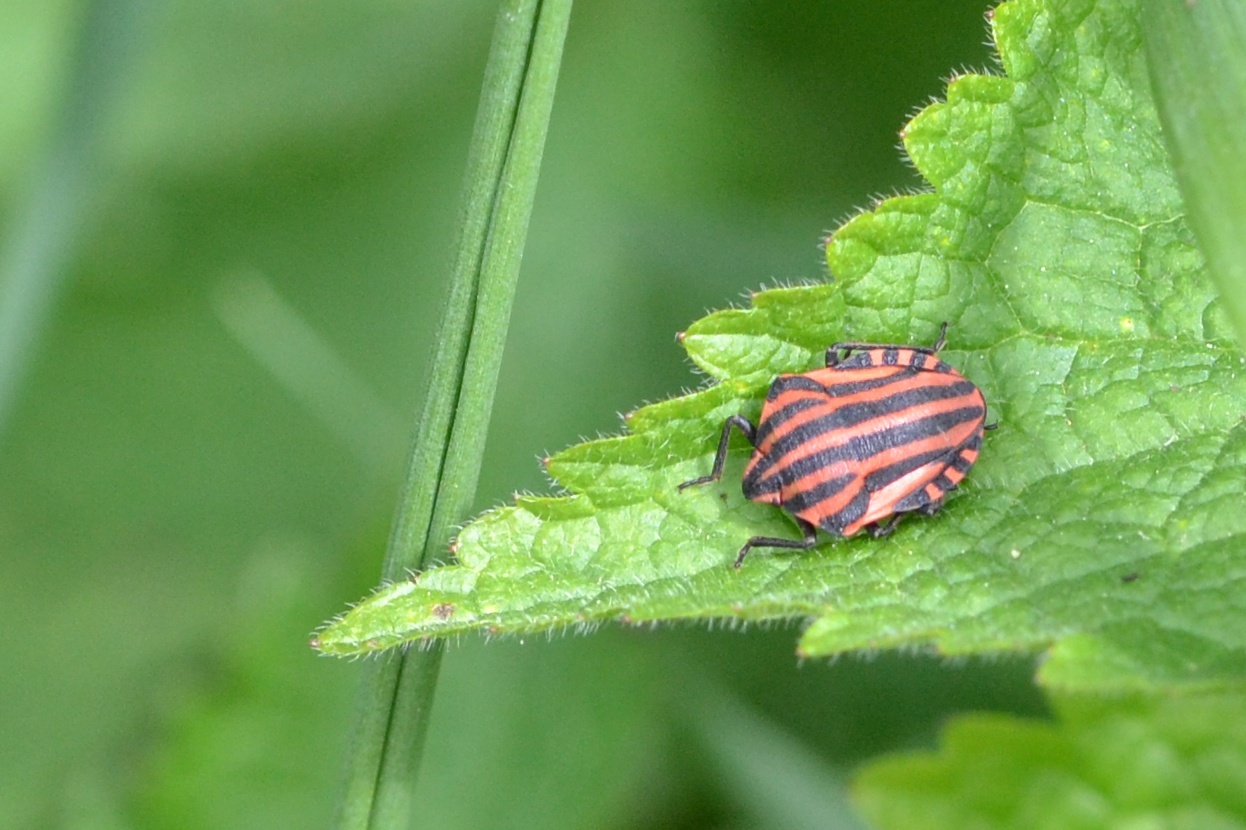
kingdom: Animalia
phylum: Arthropoda
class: Insecta
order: Hemiptera
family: Pentatomidae
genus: Graphosoma
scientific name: Graphosoma italicum
